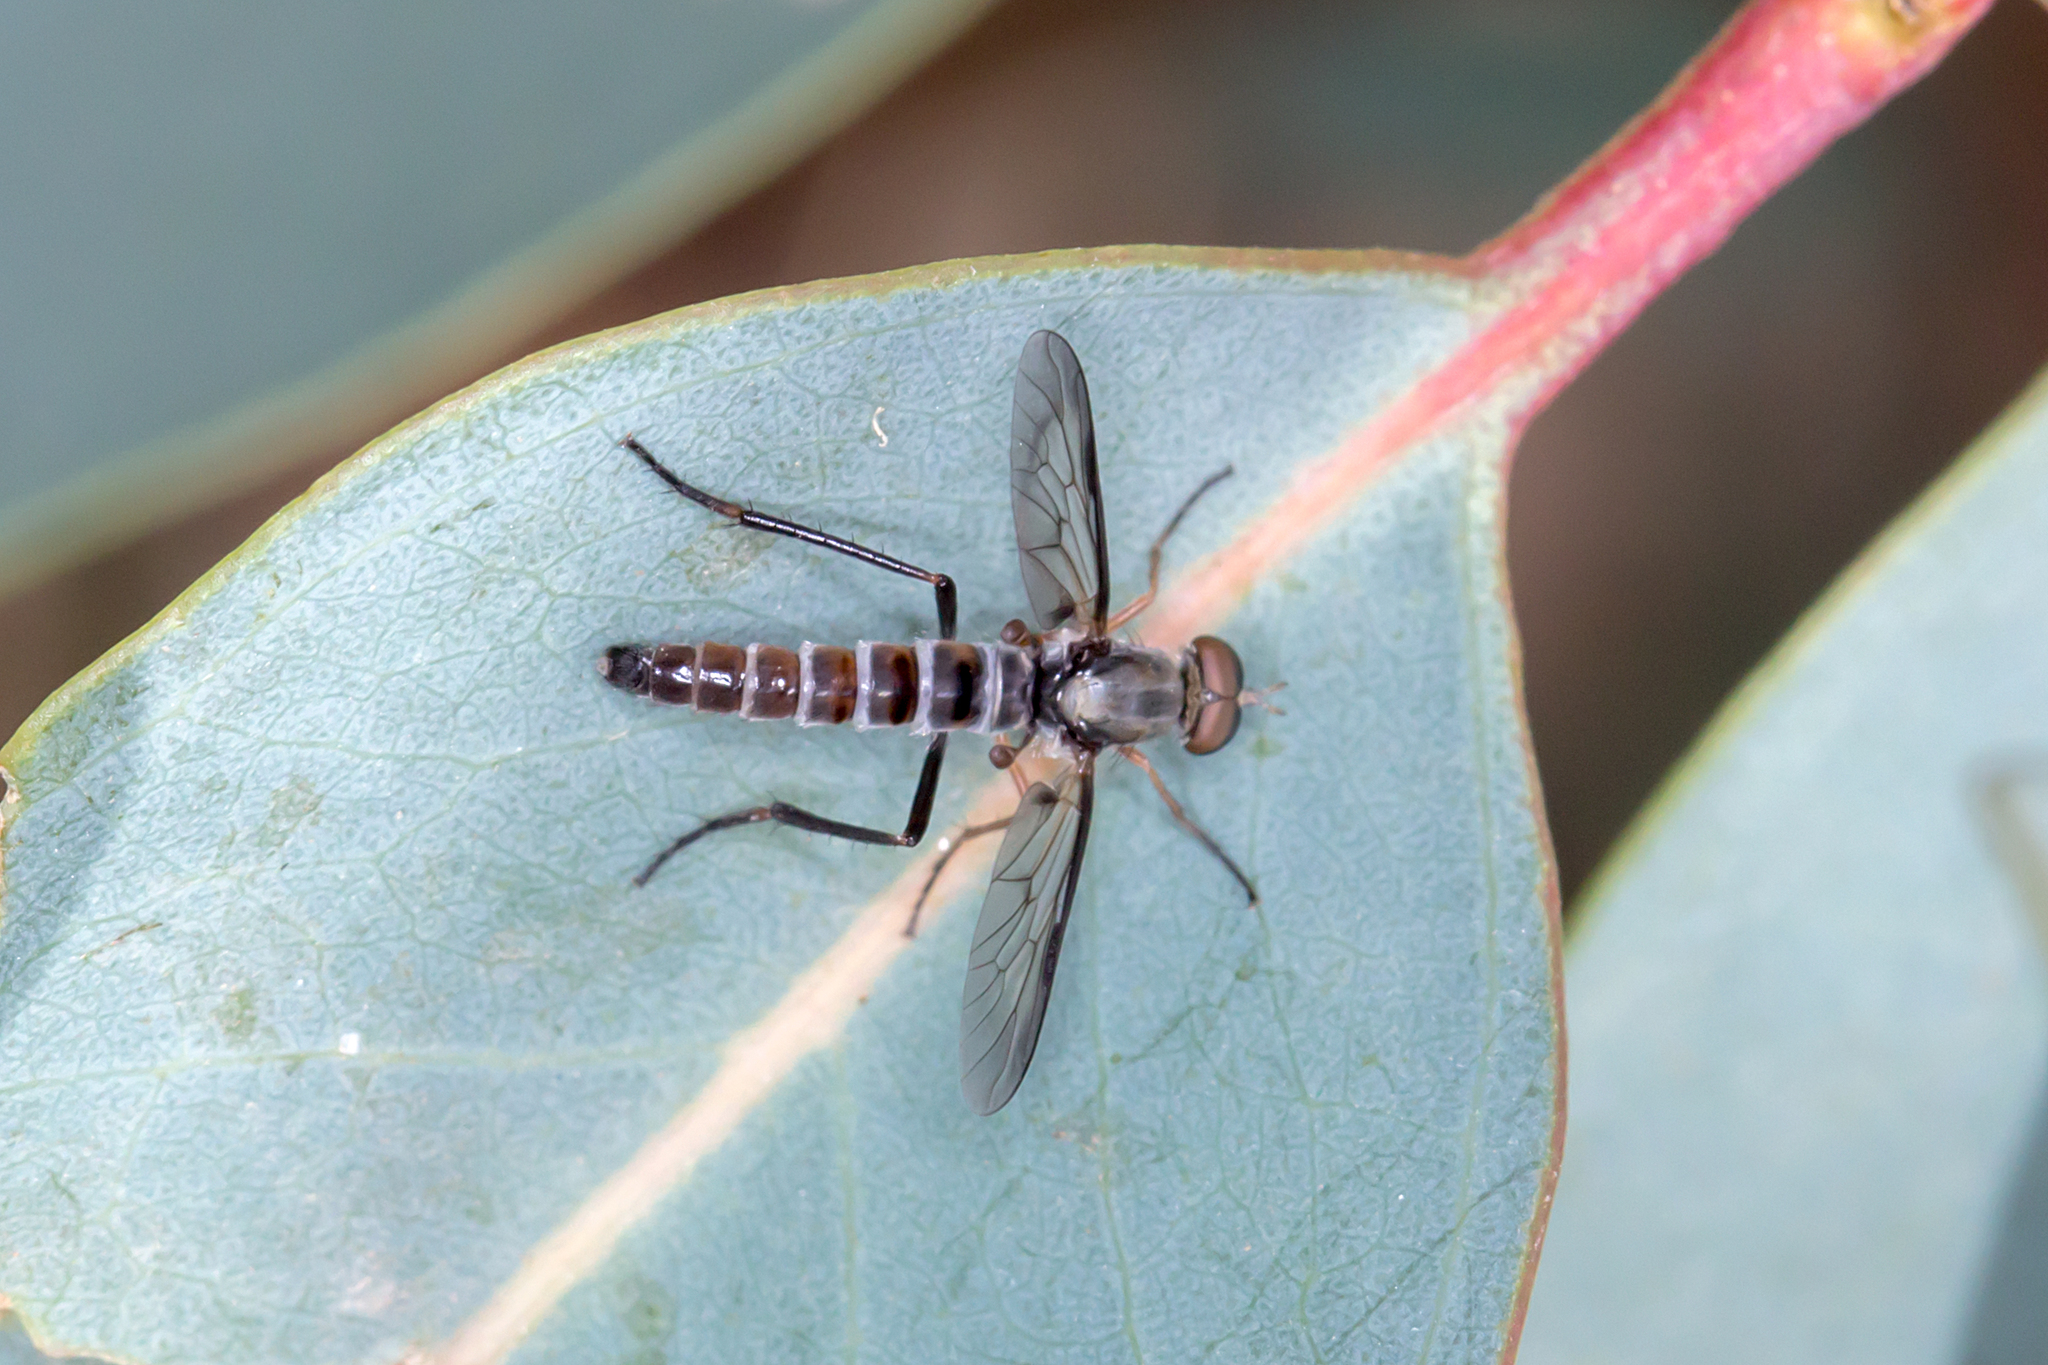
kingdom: Animalia
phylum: Arthropoda
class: Insecta
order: Diptera
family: Therevidae
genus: Taenogerella
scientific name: Taenogerella elizabethae
